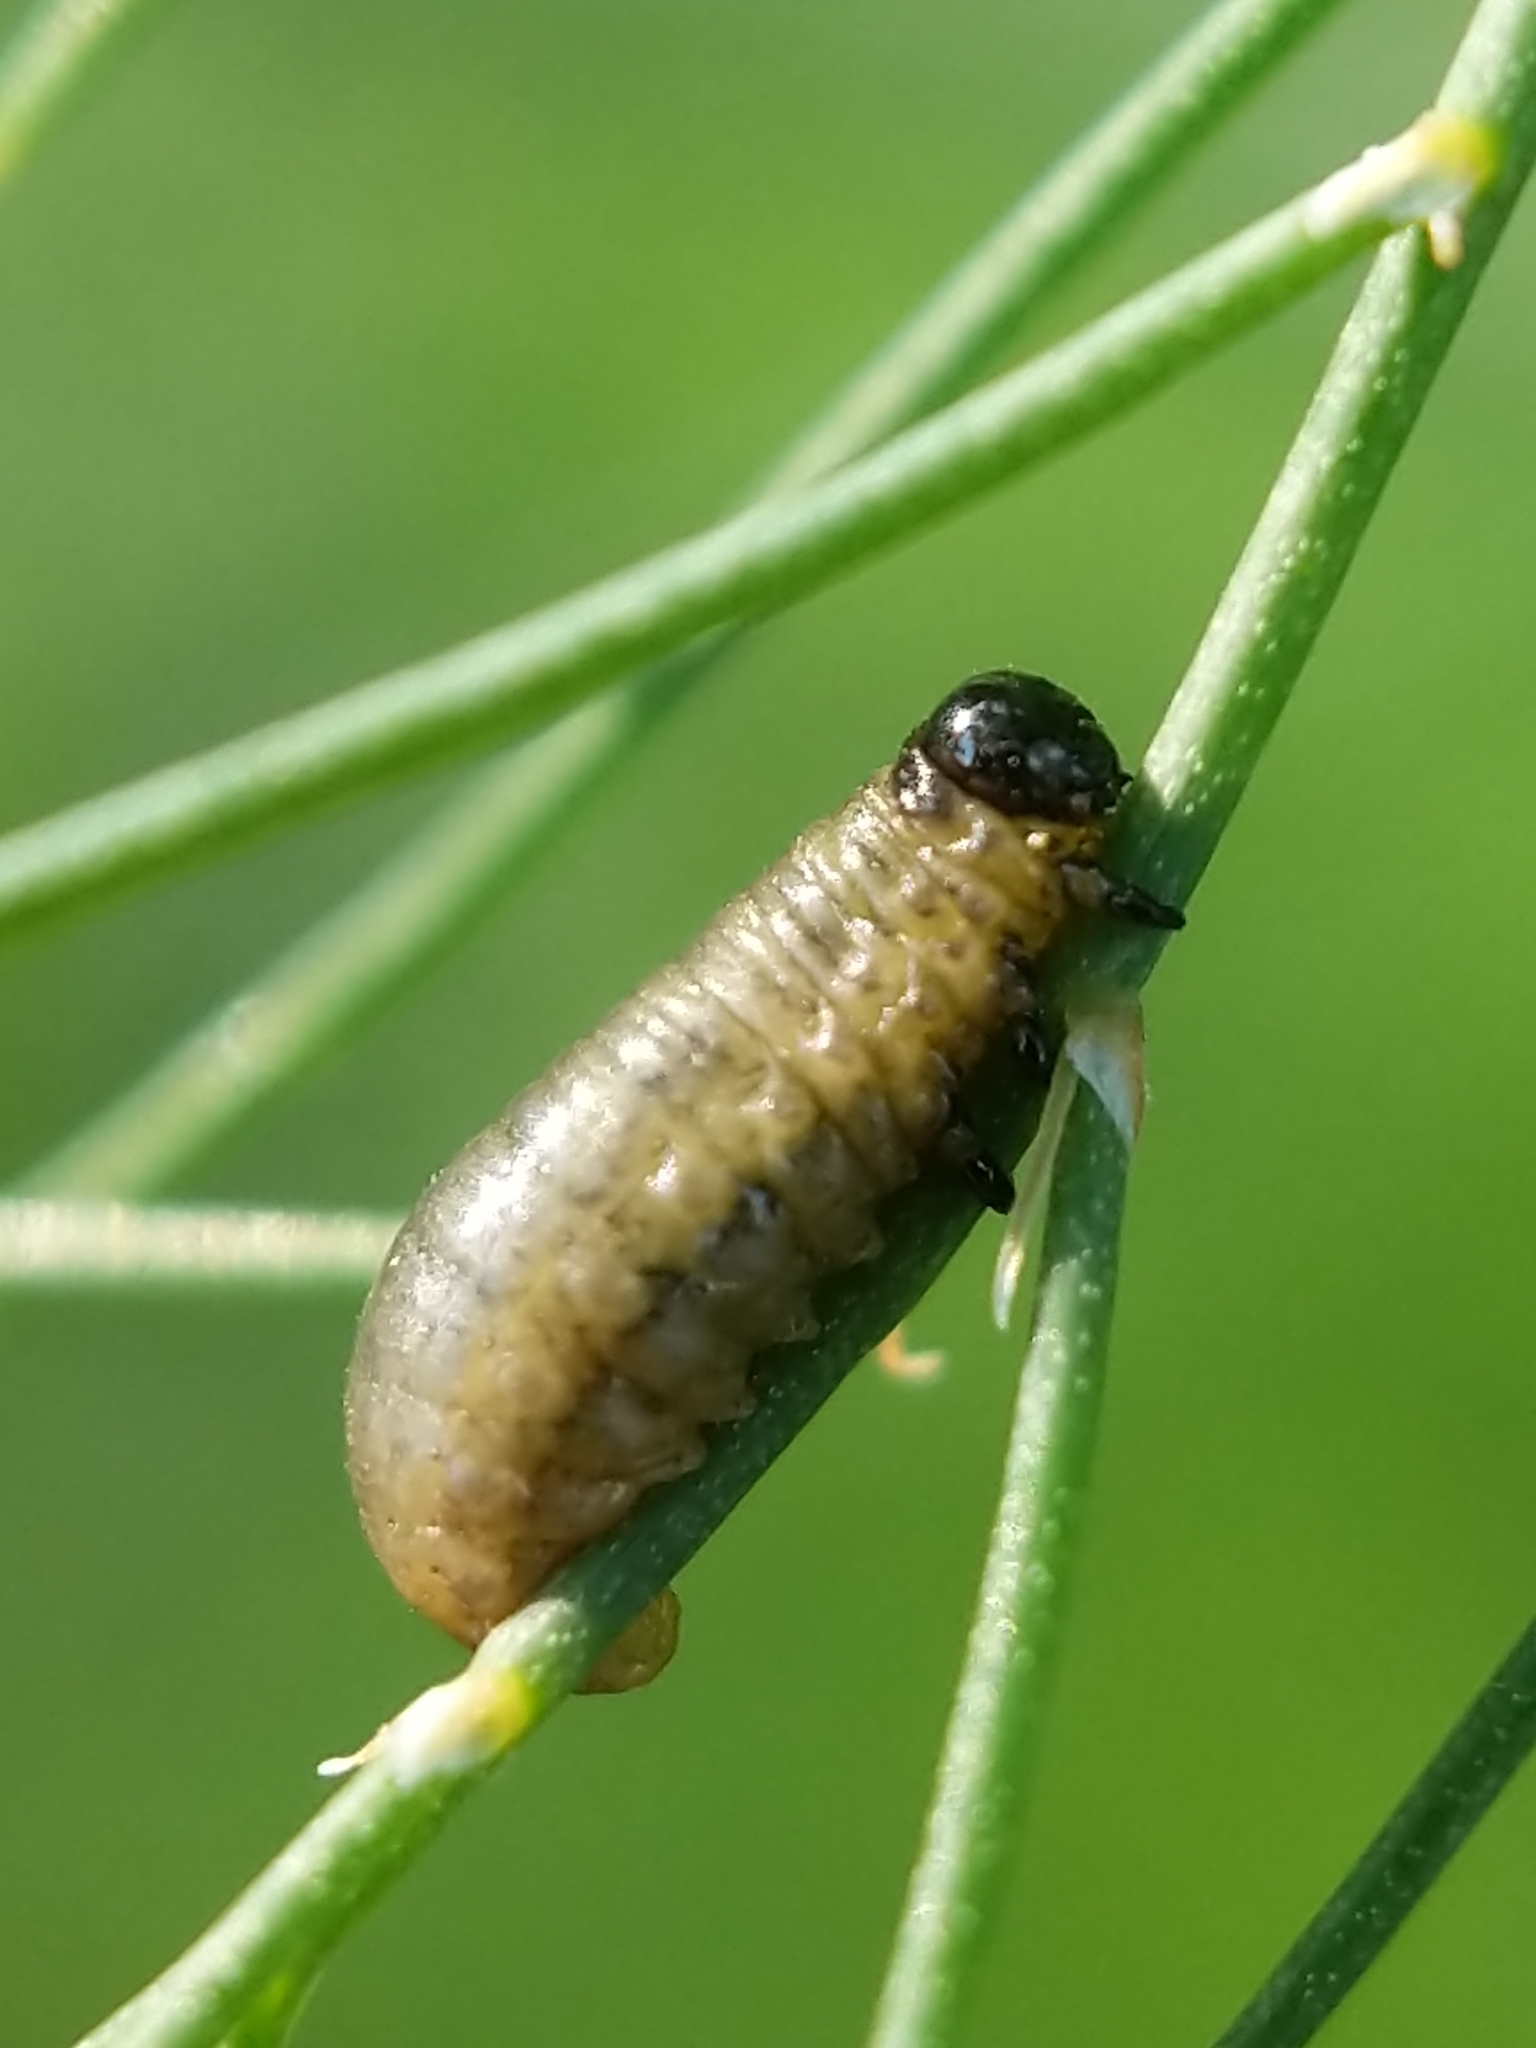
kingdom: Animalia
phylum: Arthropoda
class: Insecta
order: Coleoptera
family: Chrysomelidae
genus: Crioceris
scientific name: Crioceris asparagi
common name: Asparagus beetle
